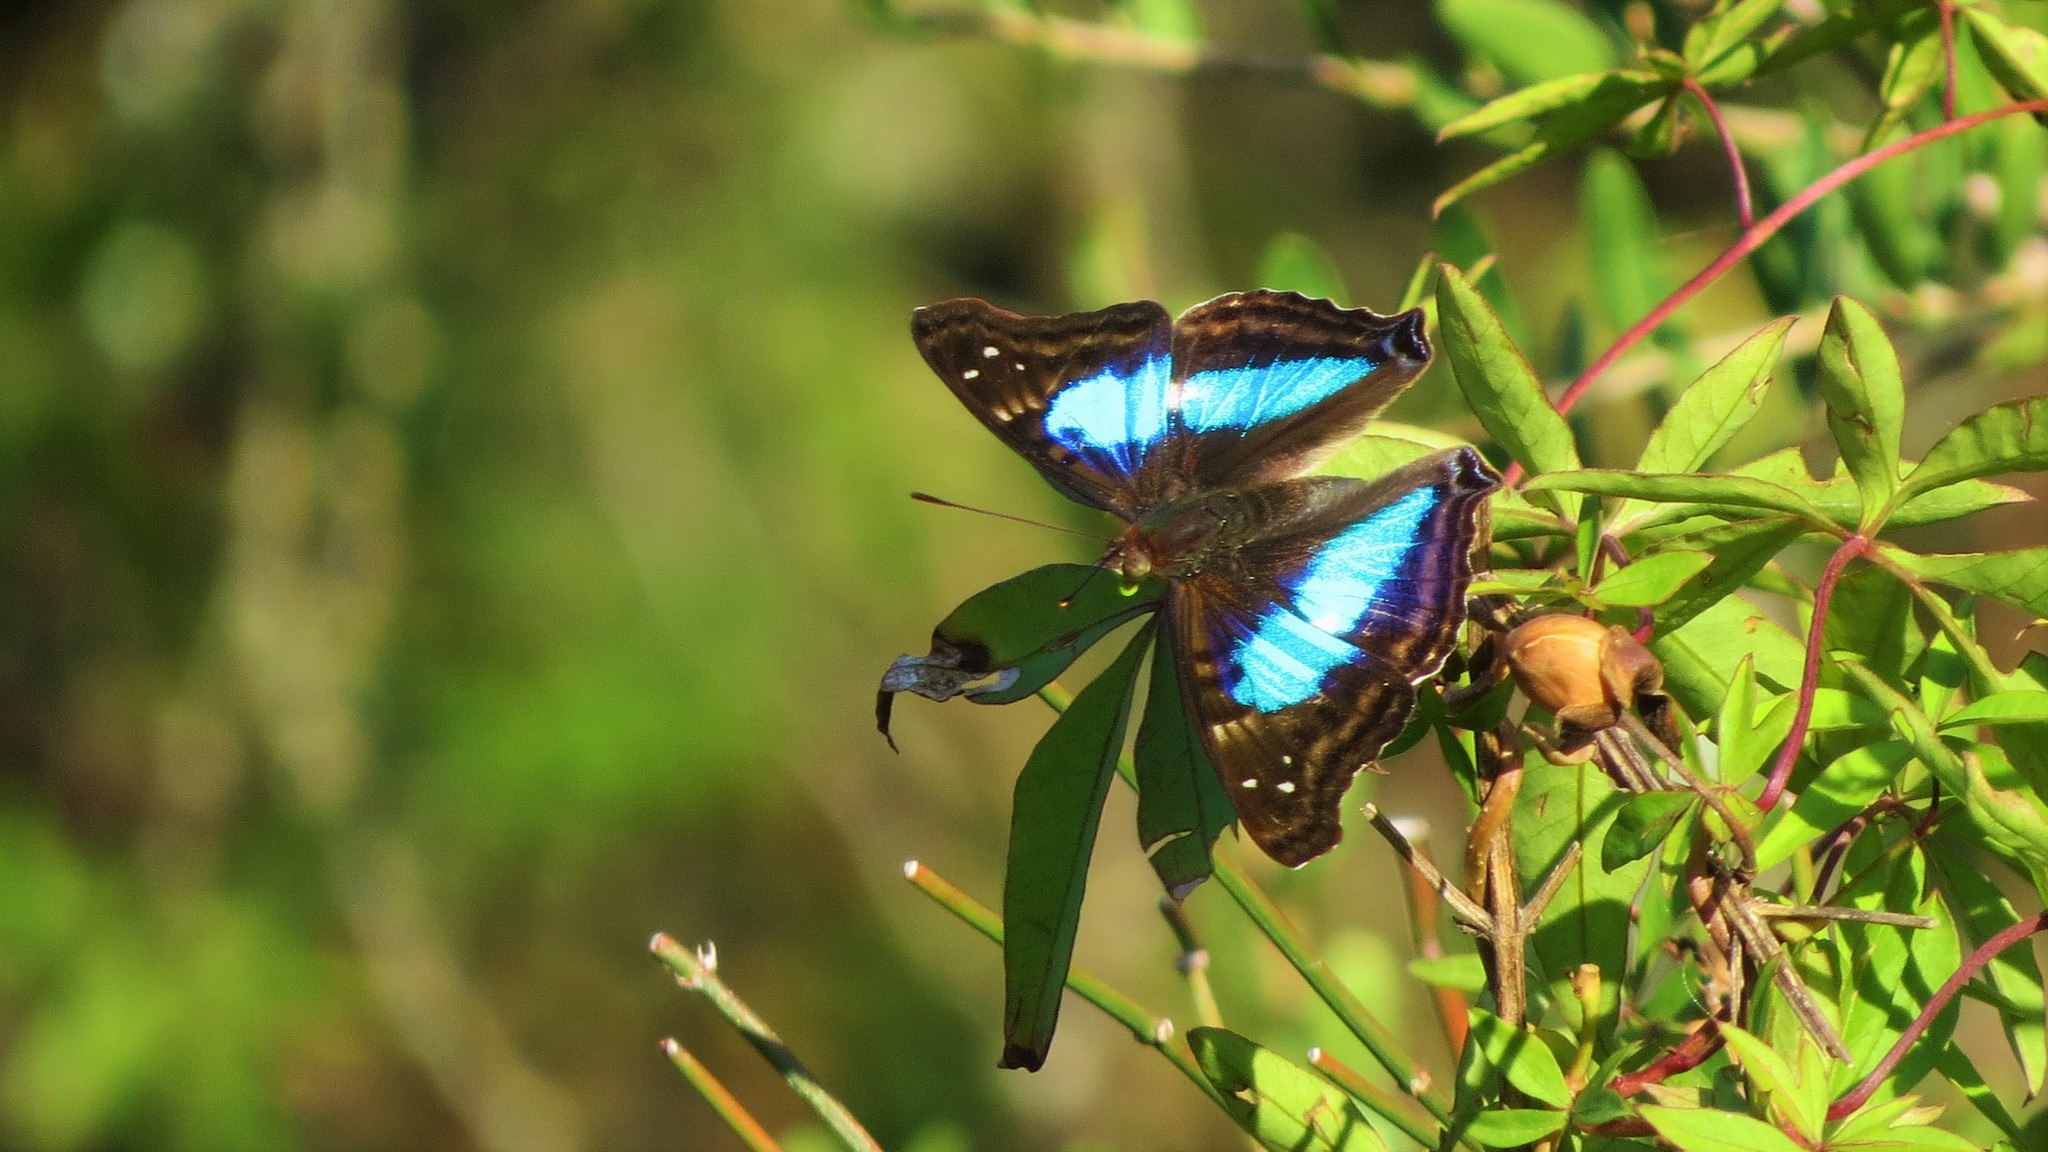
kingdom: Animalia
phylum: Arthropoda
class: Insecta
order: Lepidoptera
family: Nymphalidae
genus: Doxocopa
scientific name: Doxocopa laurentia
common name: Turquoise emperor
